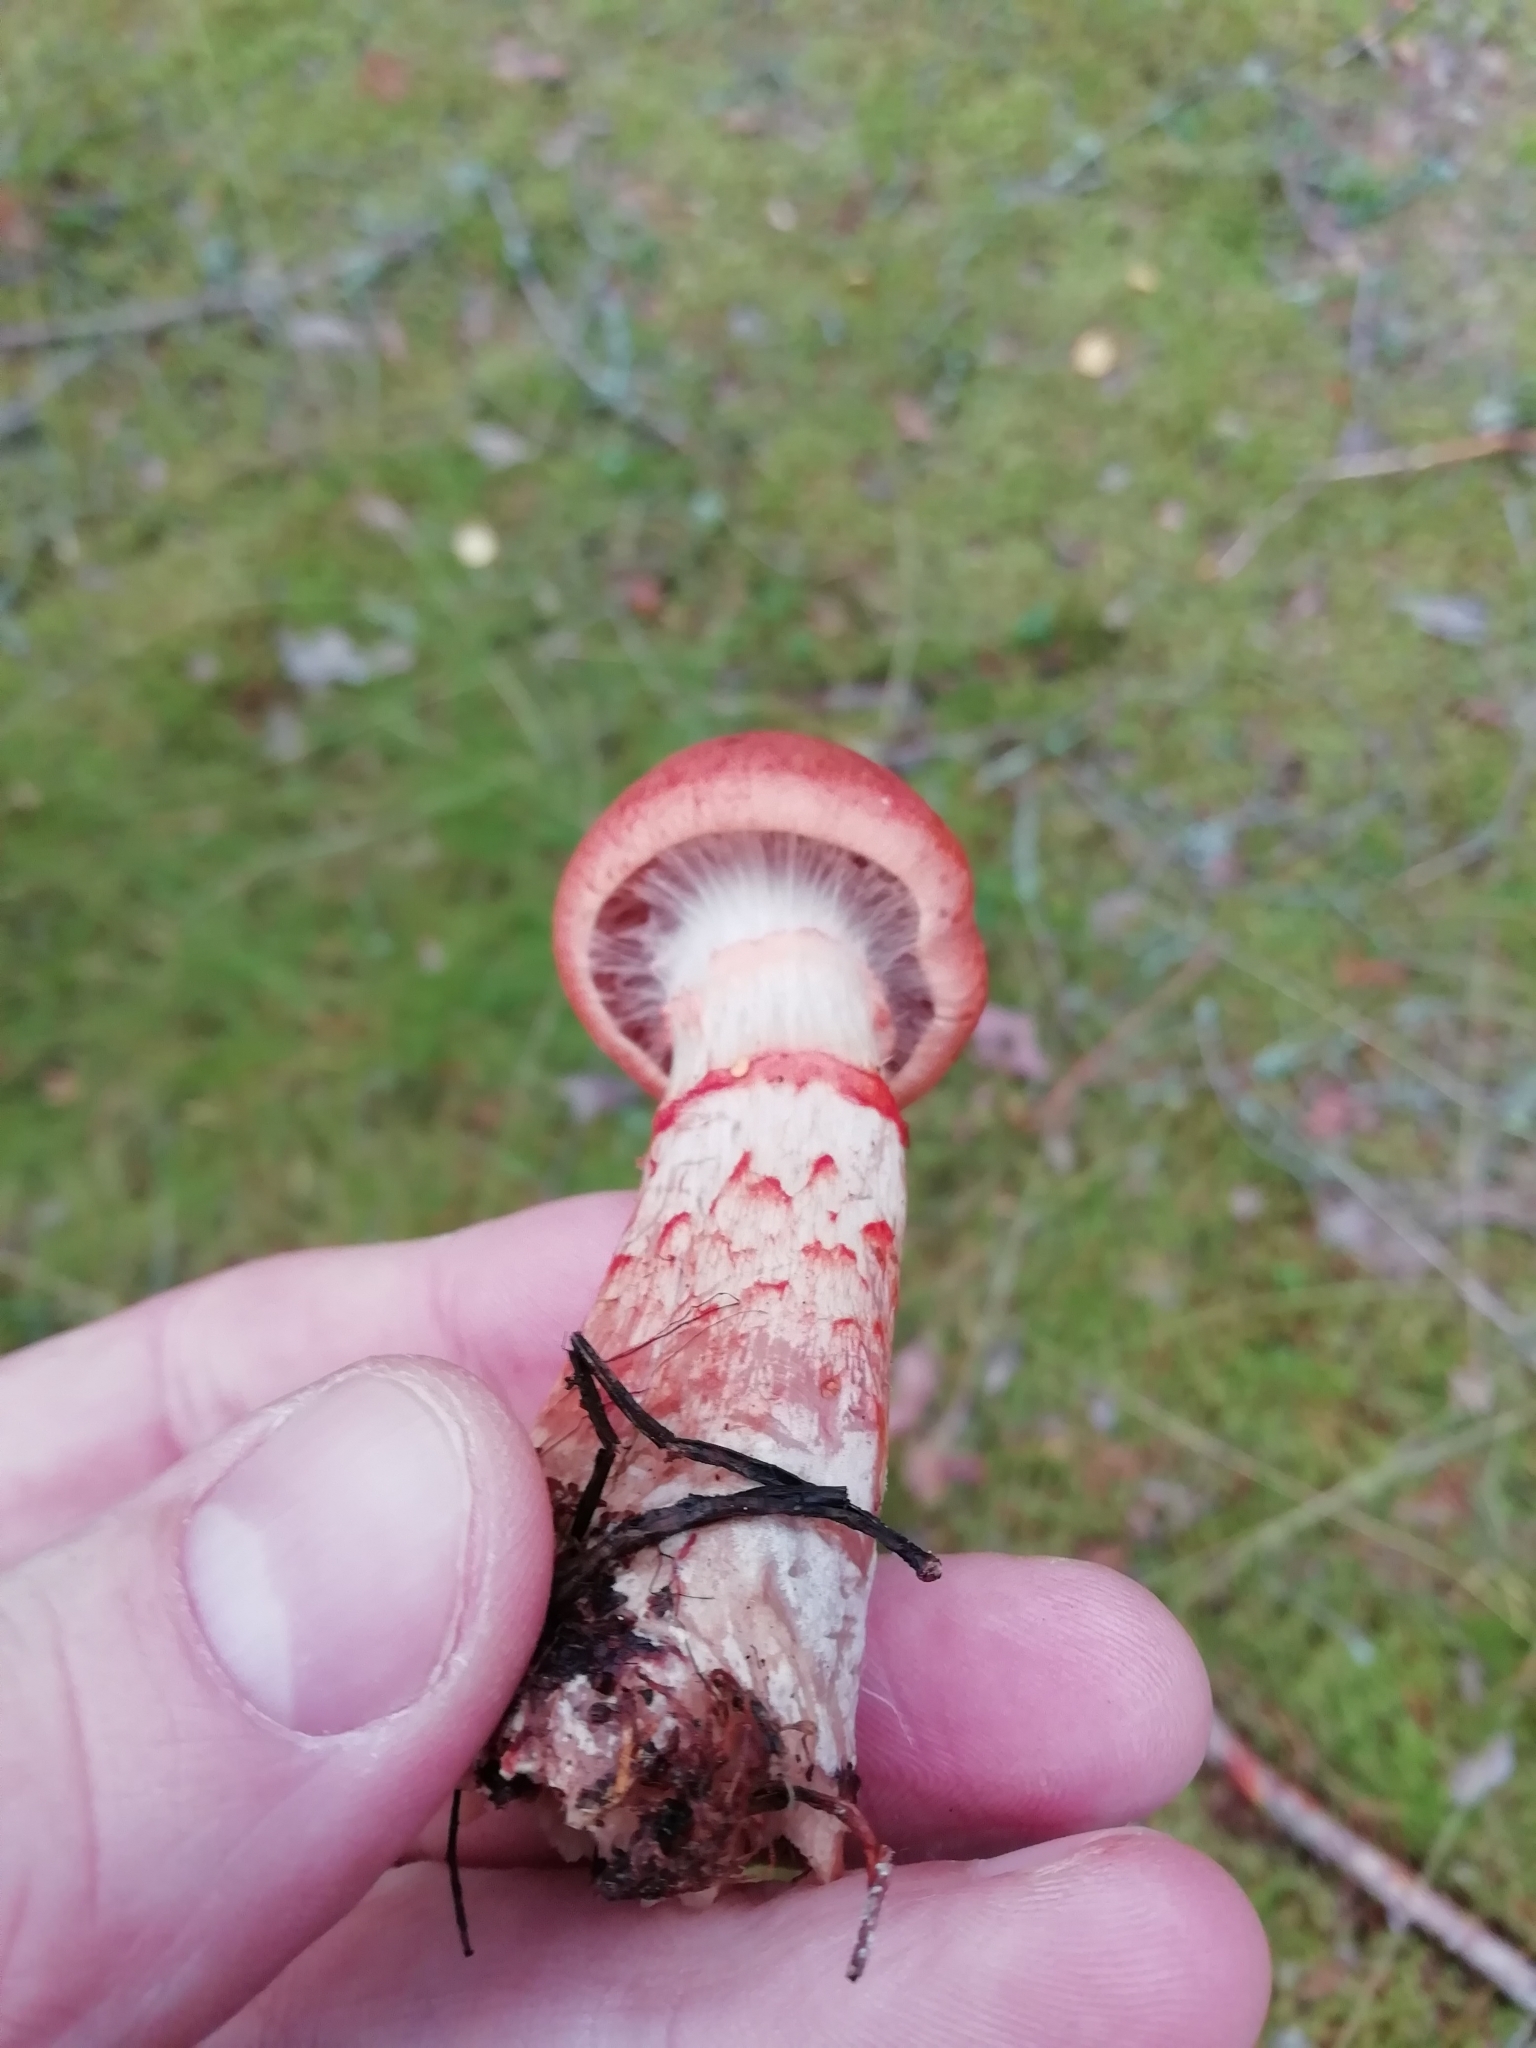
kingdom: Fungi
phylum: Basidiomycota
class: Agaricomycetes
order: Agaricales
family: Cortinariaceae
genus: Cortinarius
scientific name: Cortinarius armillatus
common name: Red banded webcap
